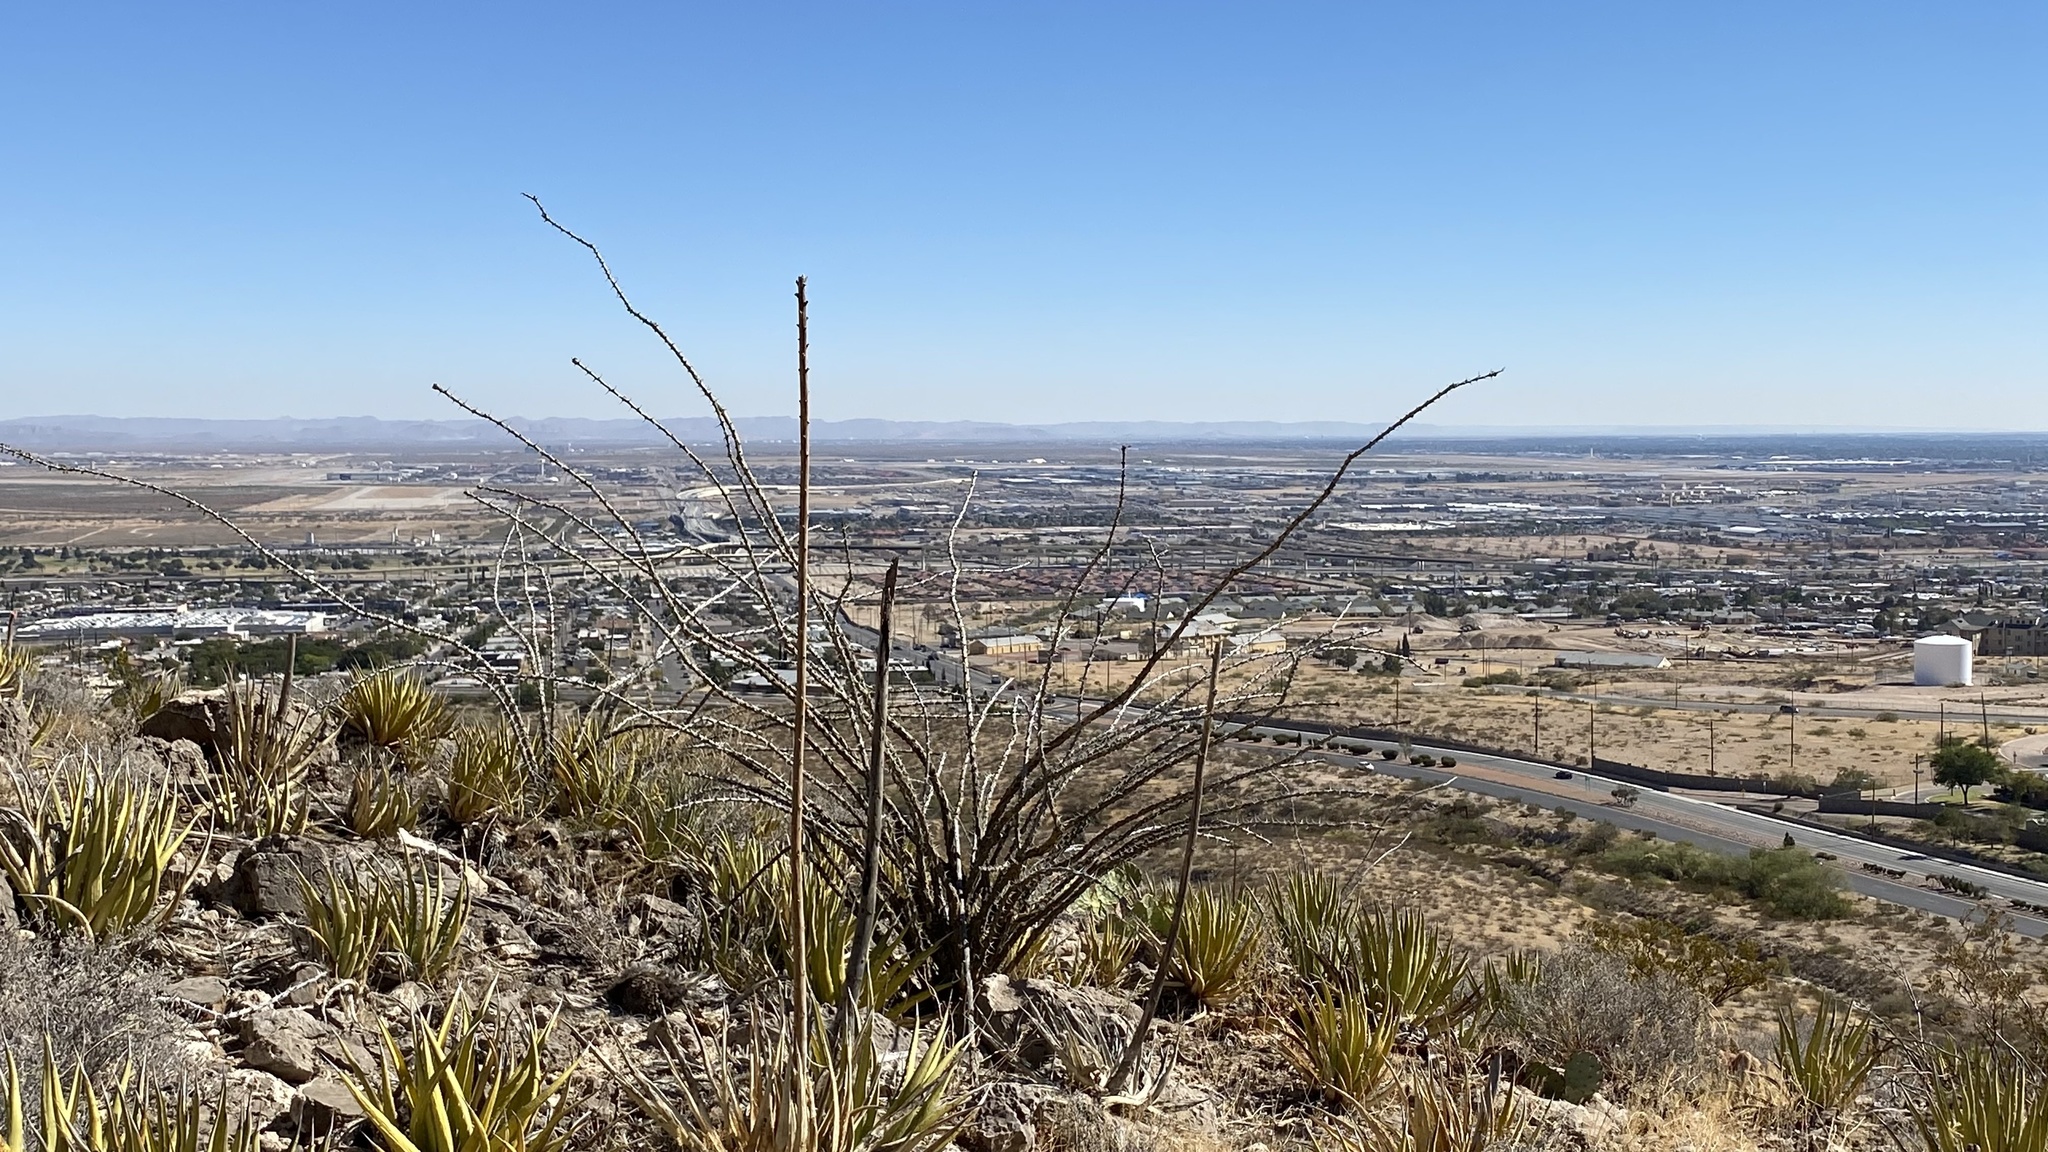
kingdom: Plantae
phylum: Tracheophyta
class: Magnoliopsida
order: Ericales
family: Fouquieriaceae
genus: Fouquieria
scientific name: Fouquieria splendens
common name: Vine-cactus
